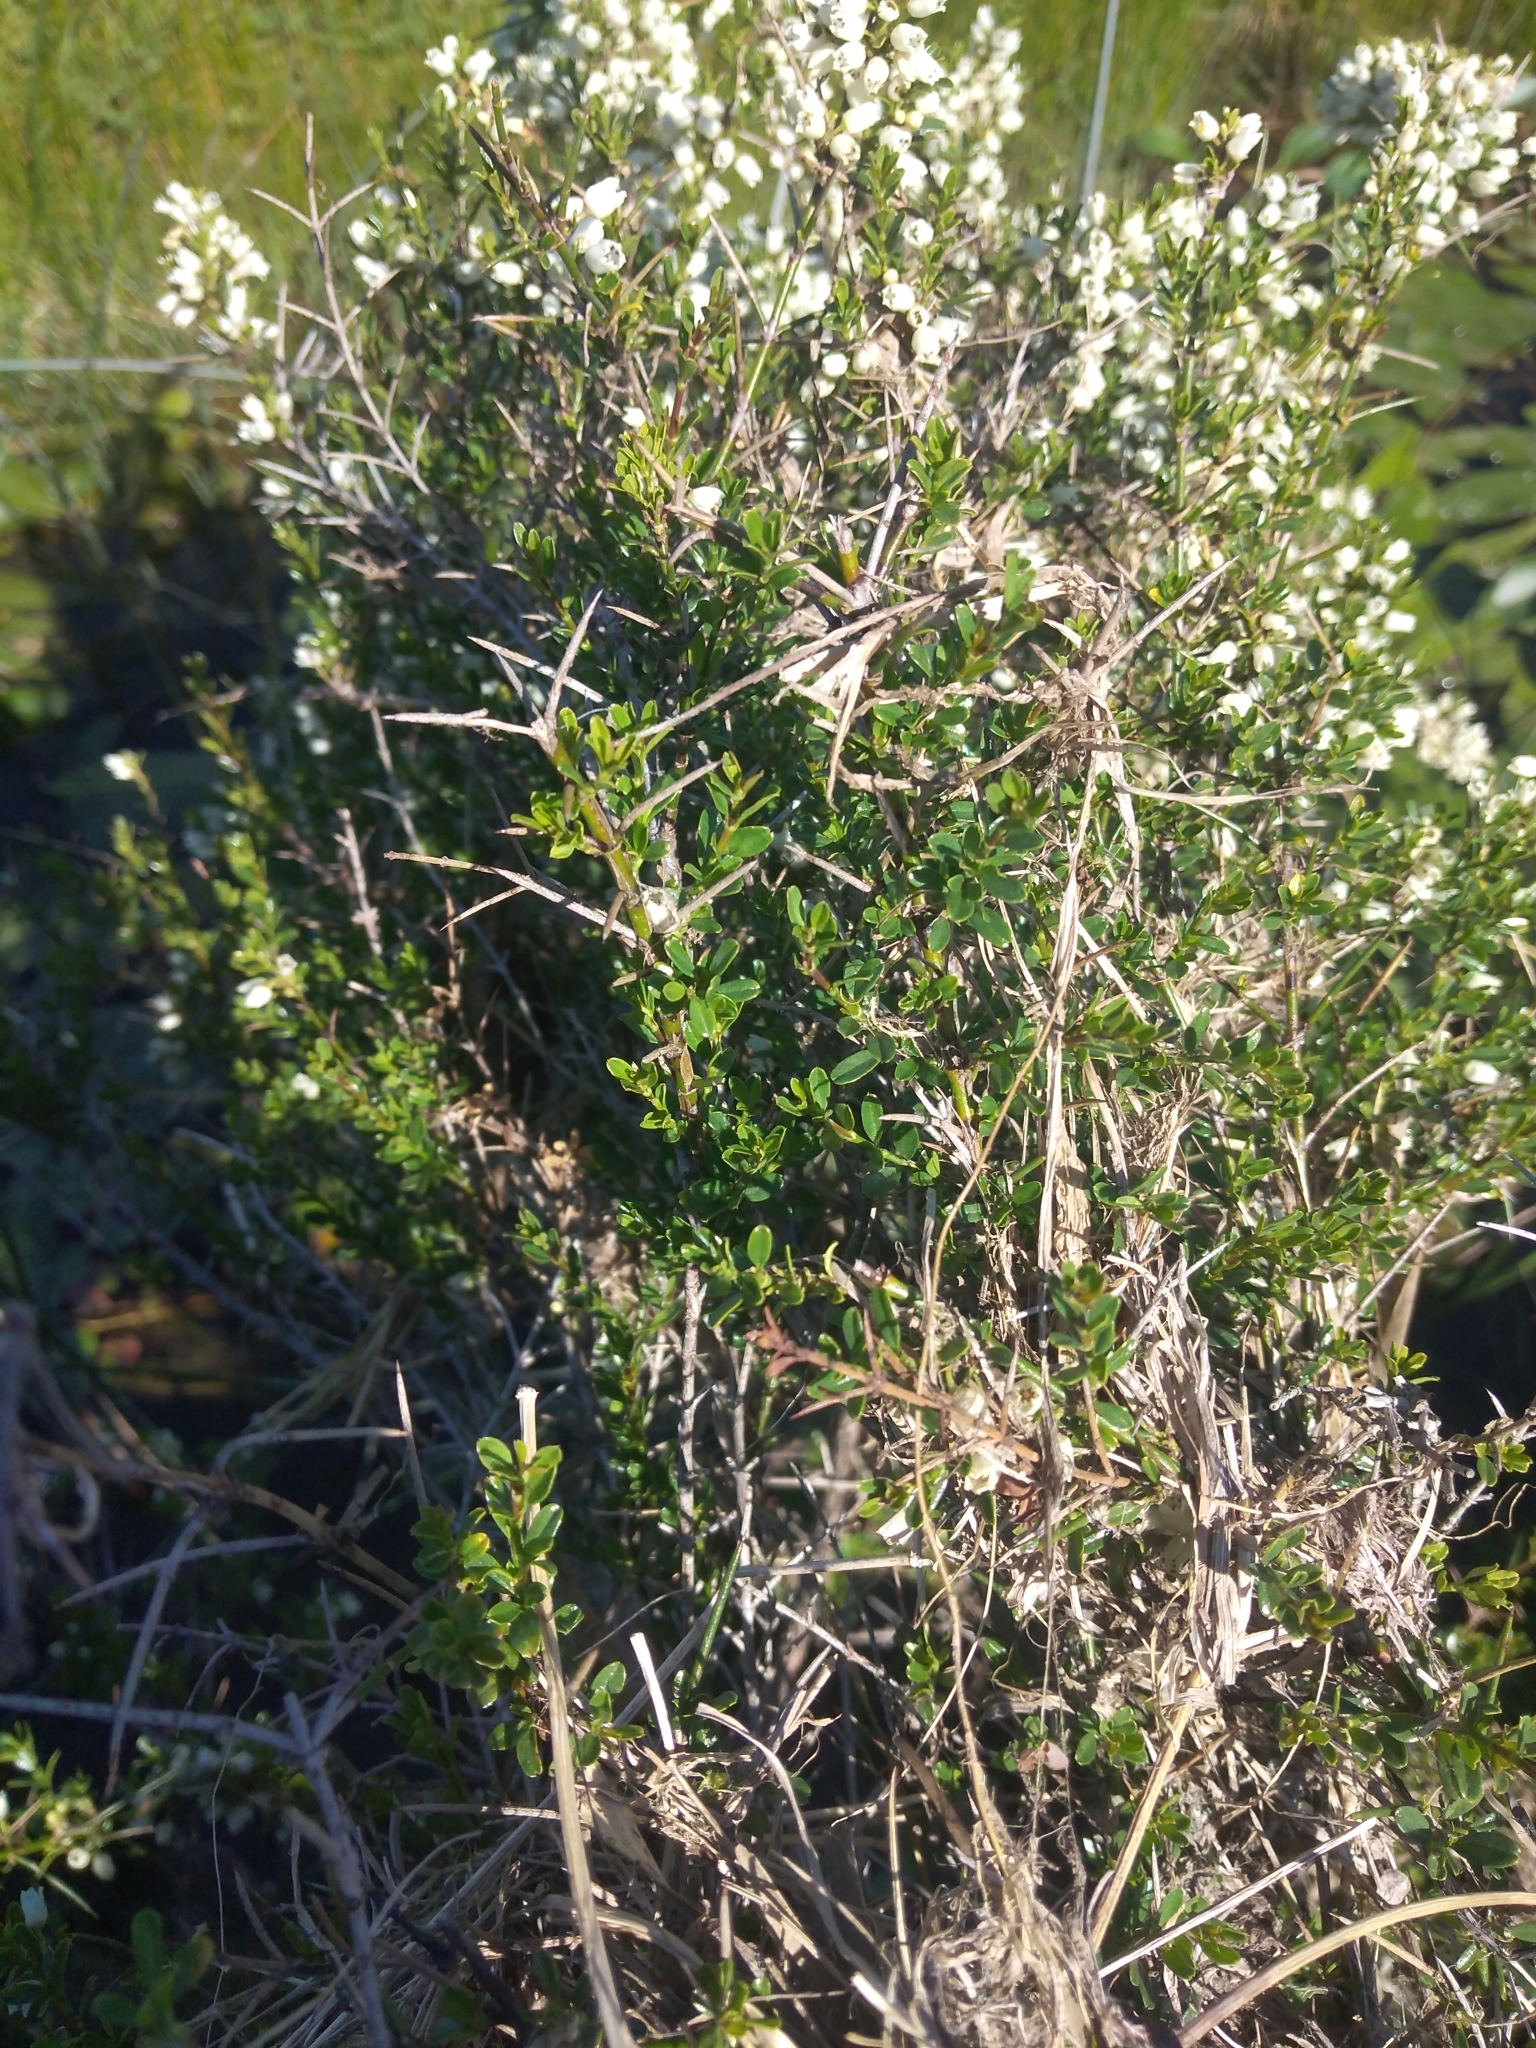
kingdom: Plantae
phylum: Tracheophyta
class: Magnoliopsida
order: Rosales
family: Rhamnaceae
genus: Discaria
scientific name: Discaria americana
